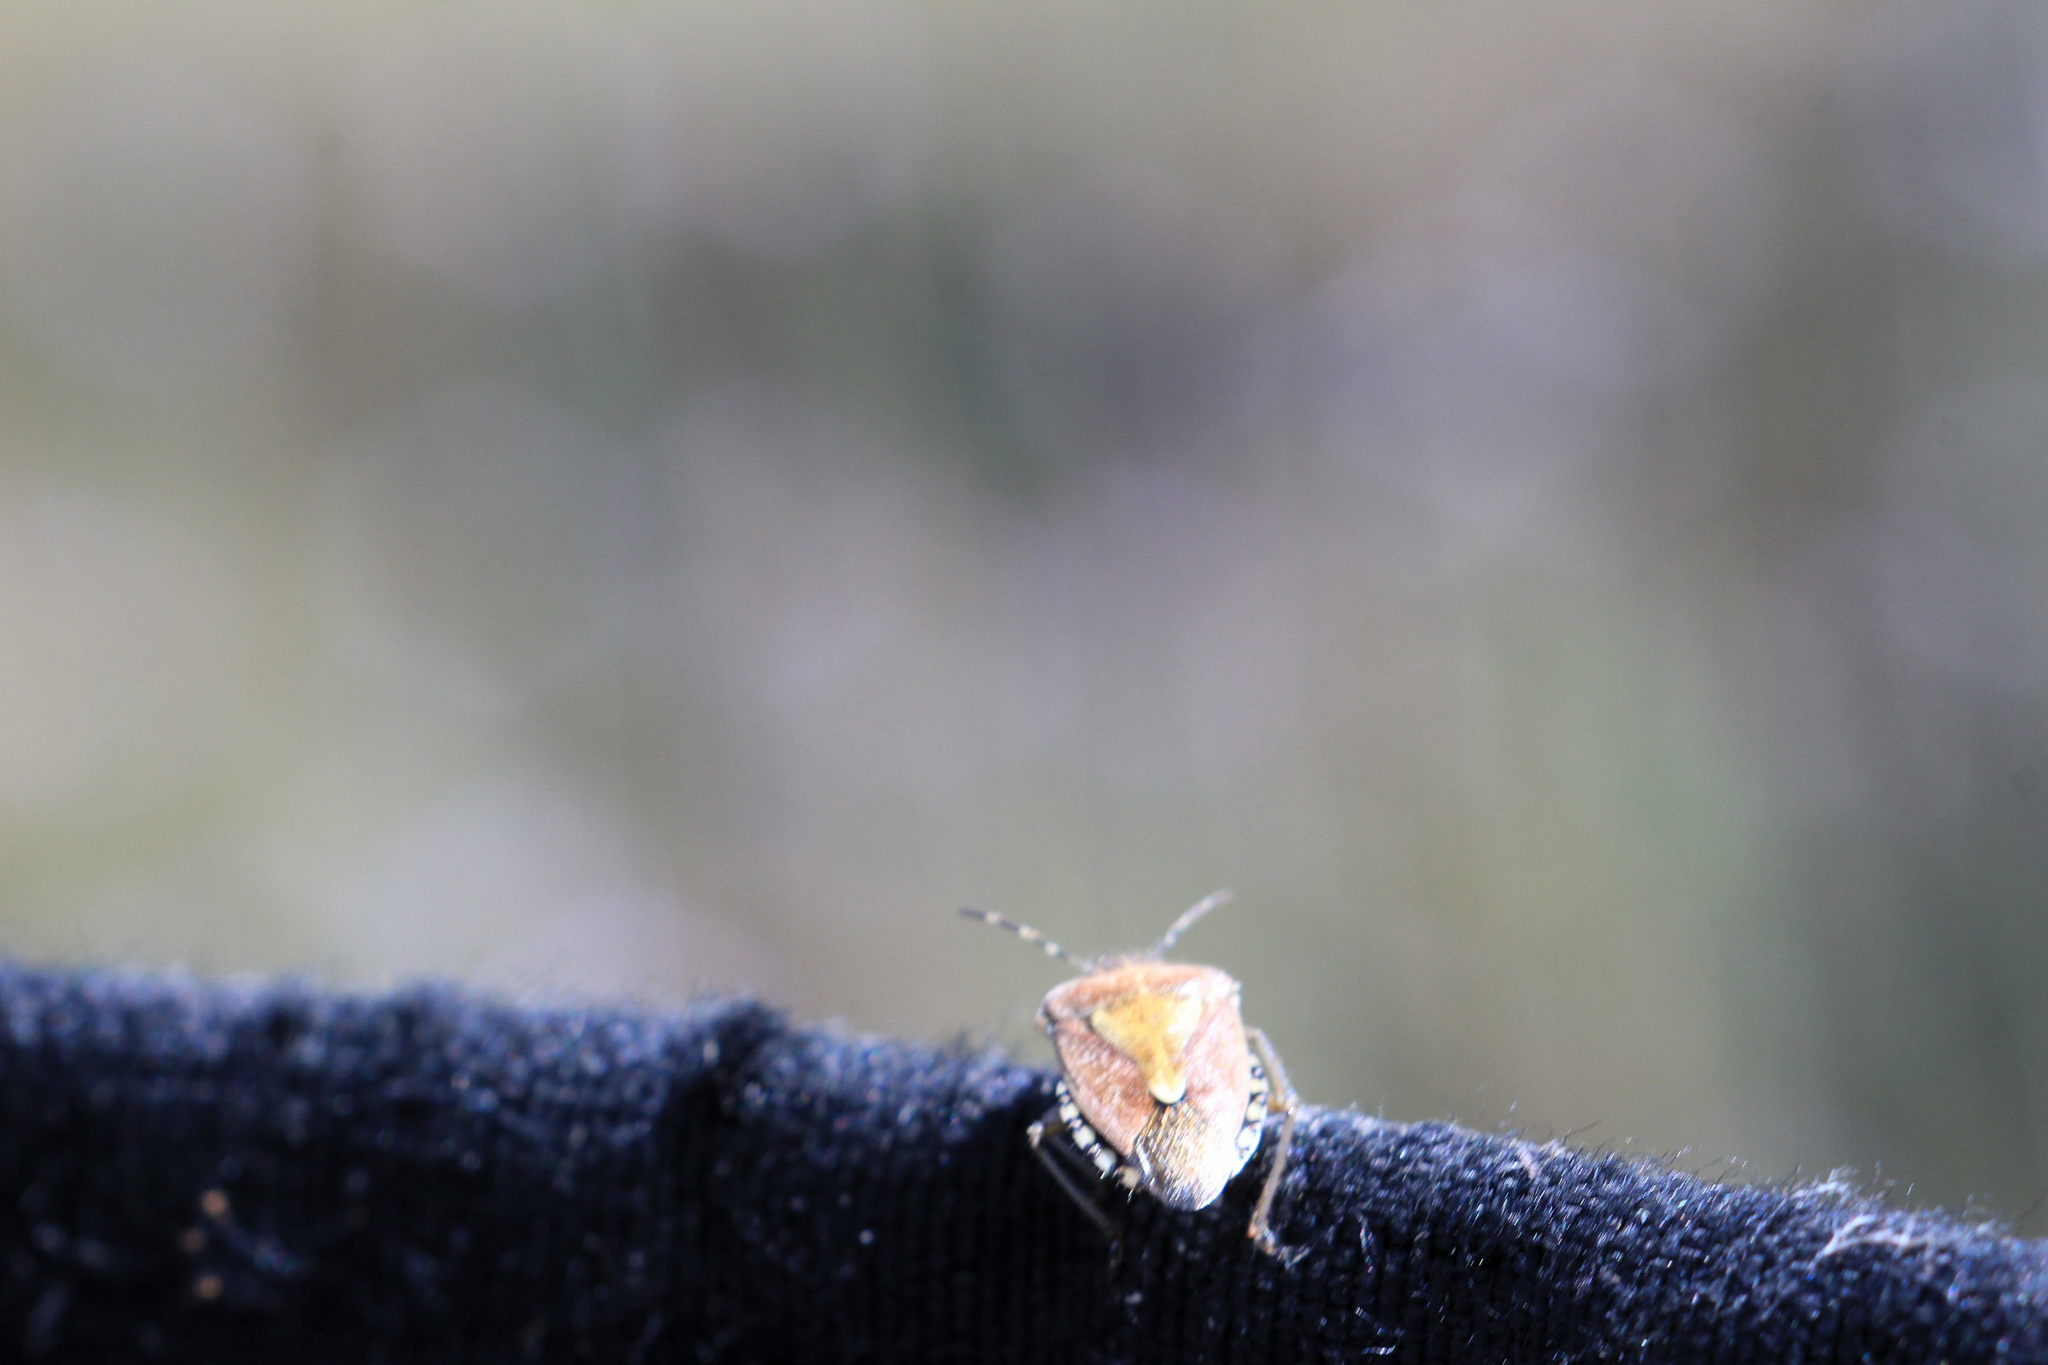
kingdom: Animalia
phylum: Arthropoda
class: Insecta
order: Hemiptera
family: Pentatomidae
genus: Dolycoris
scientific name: Dolycoris baccarum
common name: Sloe bug
